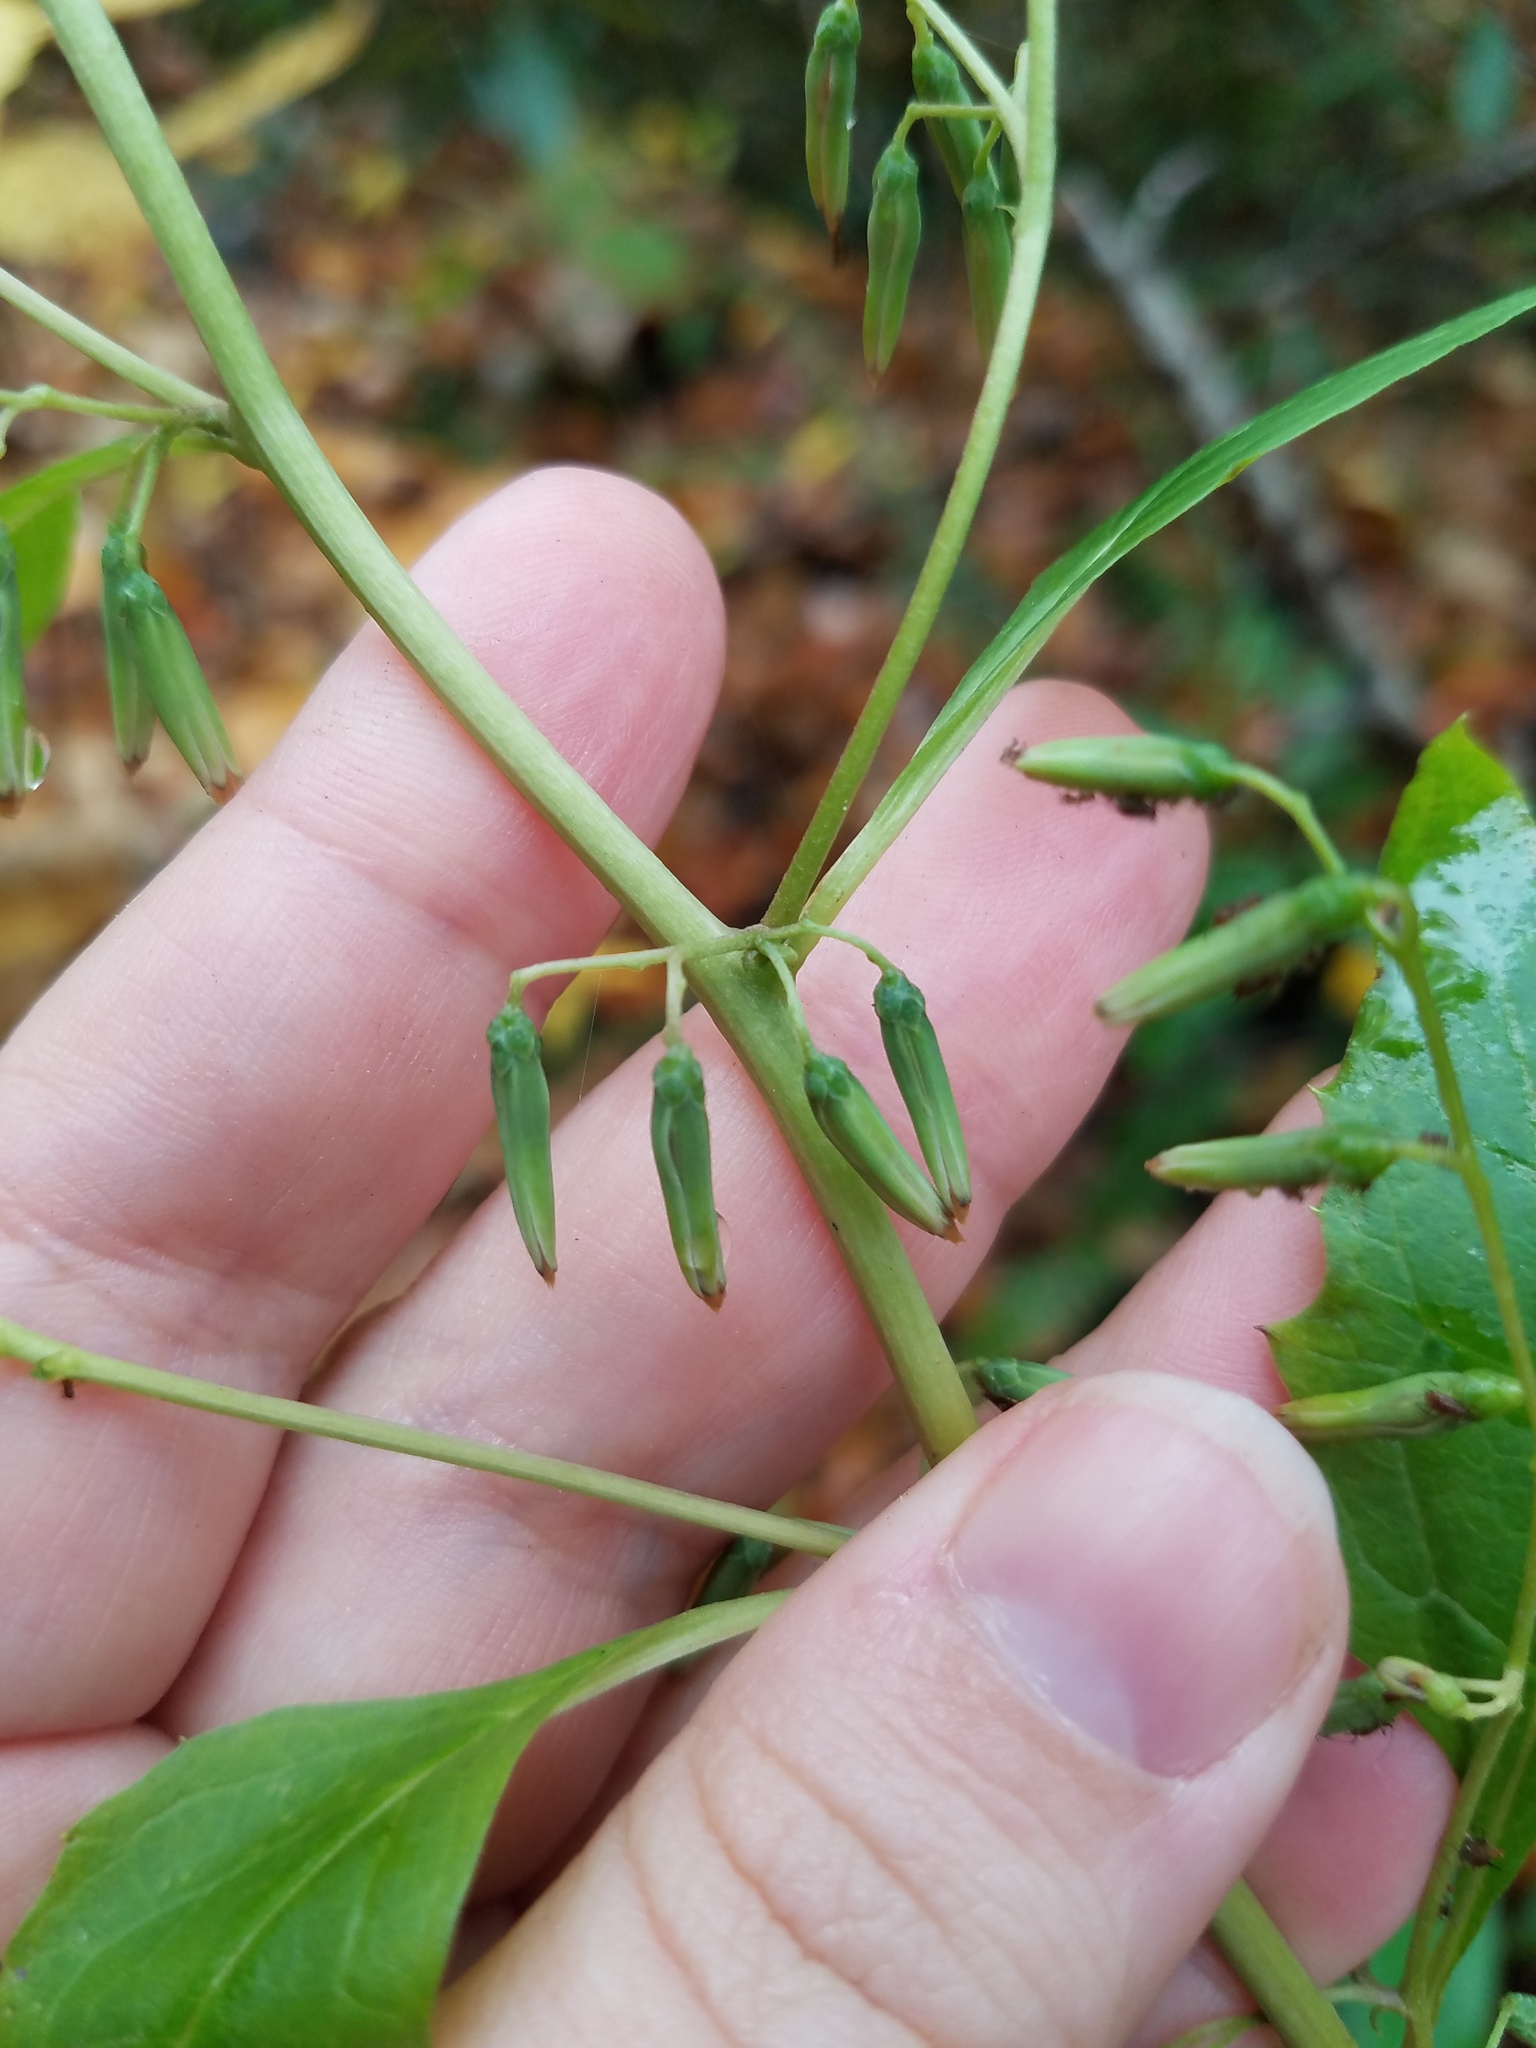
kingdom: Plantae
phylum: Tracheophyta
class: Magnoliopsida
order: Asterales
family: Asteraceae
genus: Nabalus
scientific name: Nabalus altissima
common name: Tall rattlesnakeroot
